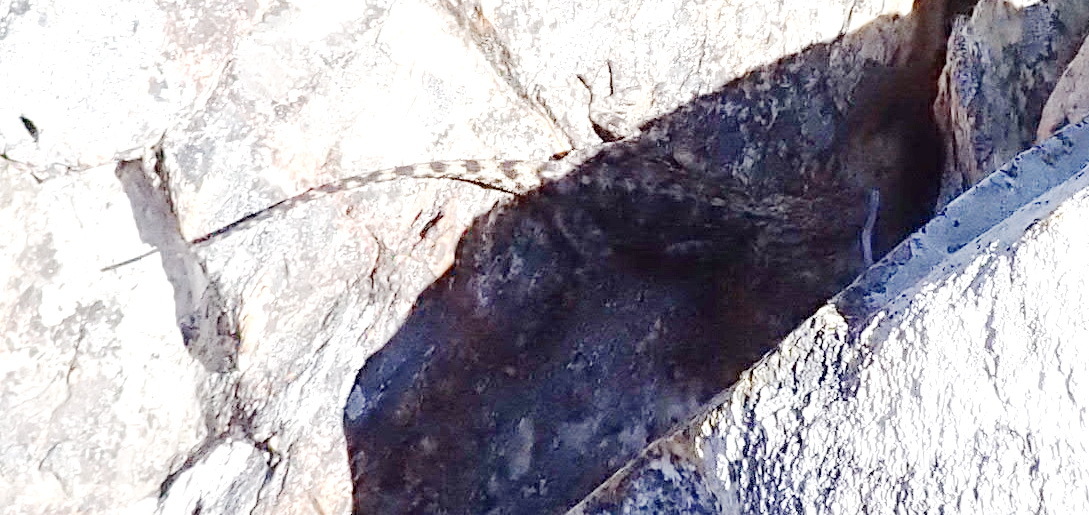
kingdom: Animalia
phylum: Chordata
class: Squamata
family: Agamidae
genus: Agama
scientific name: Agama atra
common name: Southern african rock agama
